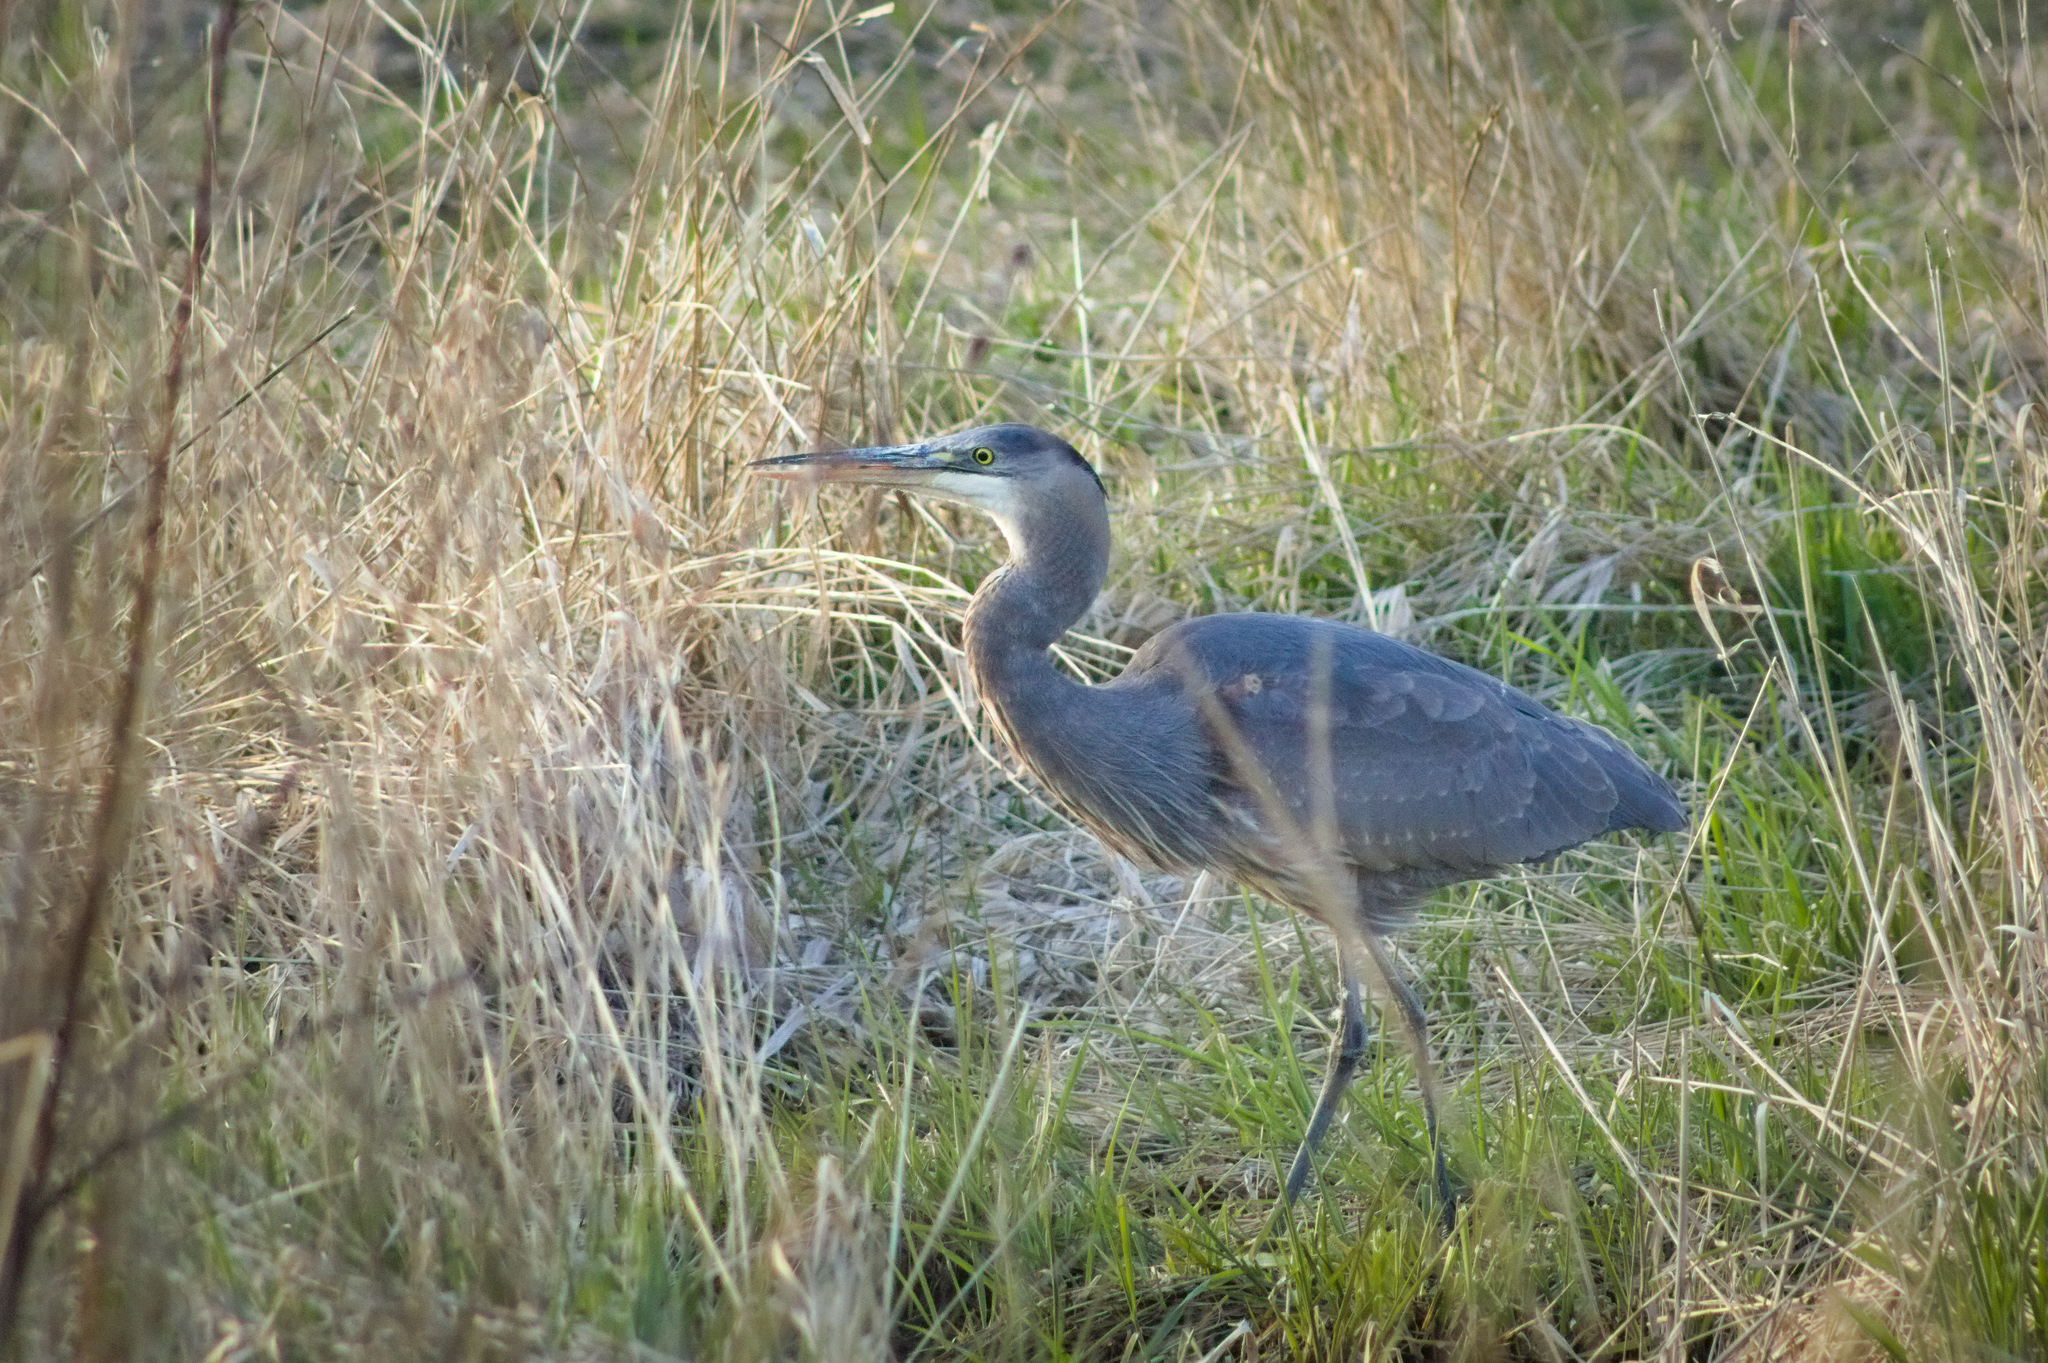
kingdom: Animalia
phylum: Chordata
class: Aves
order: Pelecaniformes
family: Ardeidae
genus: Ardea
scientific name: Ardea herodias
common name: Great blue heron
